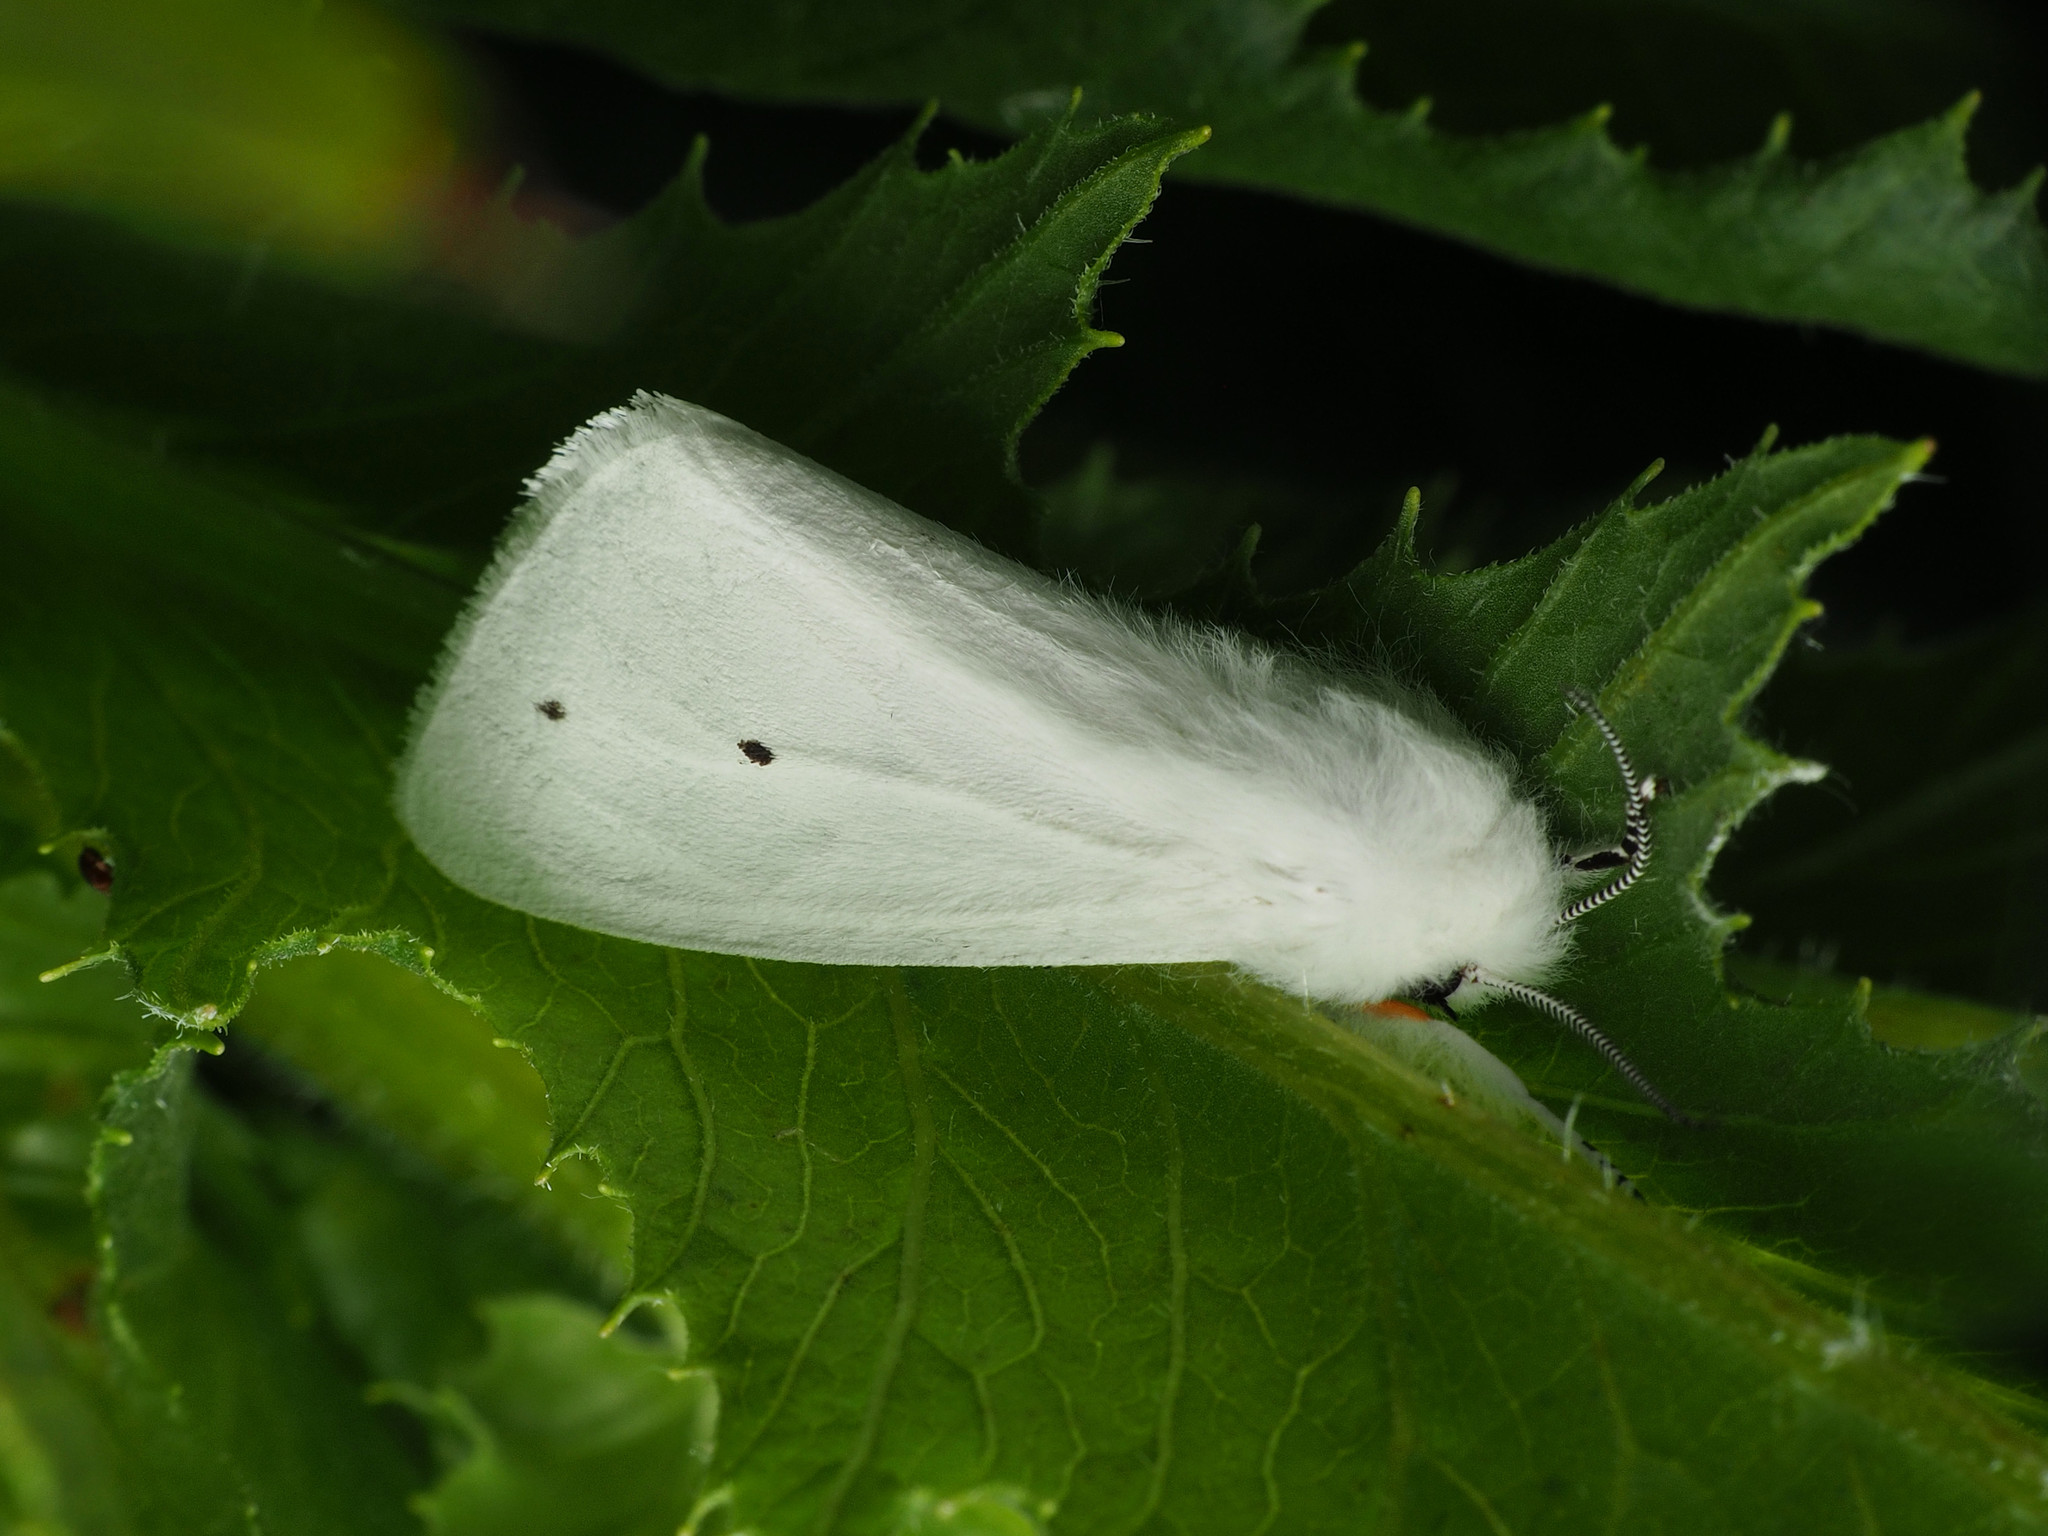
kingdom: Animalia
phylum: Arthropoda
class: Insecta
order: Lepidoptera
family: Erebidae
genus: Spilosoma
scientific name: Spilosoma virginica
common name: Virginia tiger moth
